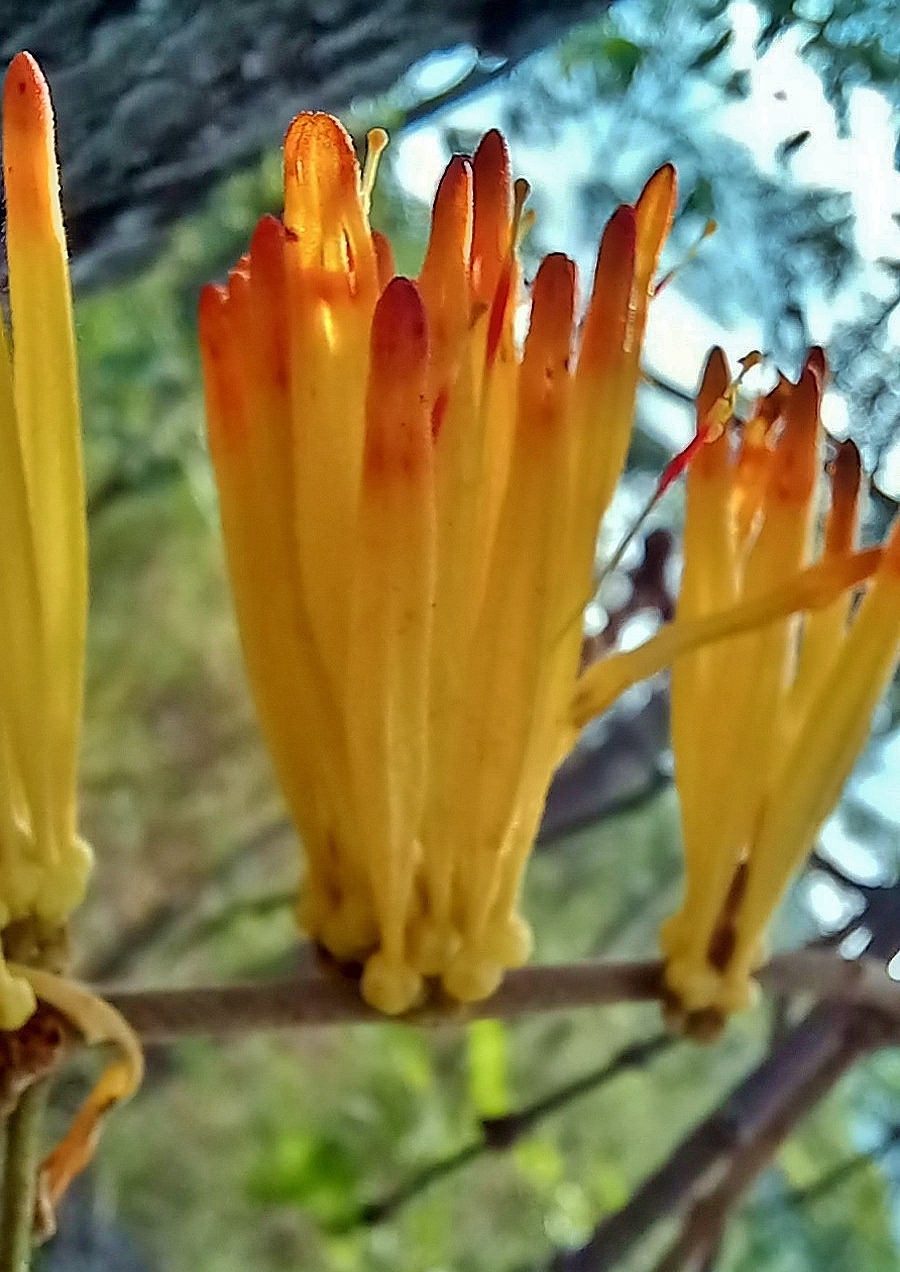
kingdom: Plantae
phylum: Tracheophyta
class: Magnoliopsida
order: Santalales
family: Loranthaceae
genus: Agelanthus
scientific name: Agelanthus pungu
